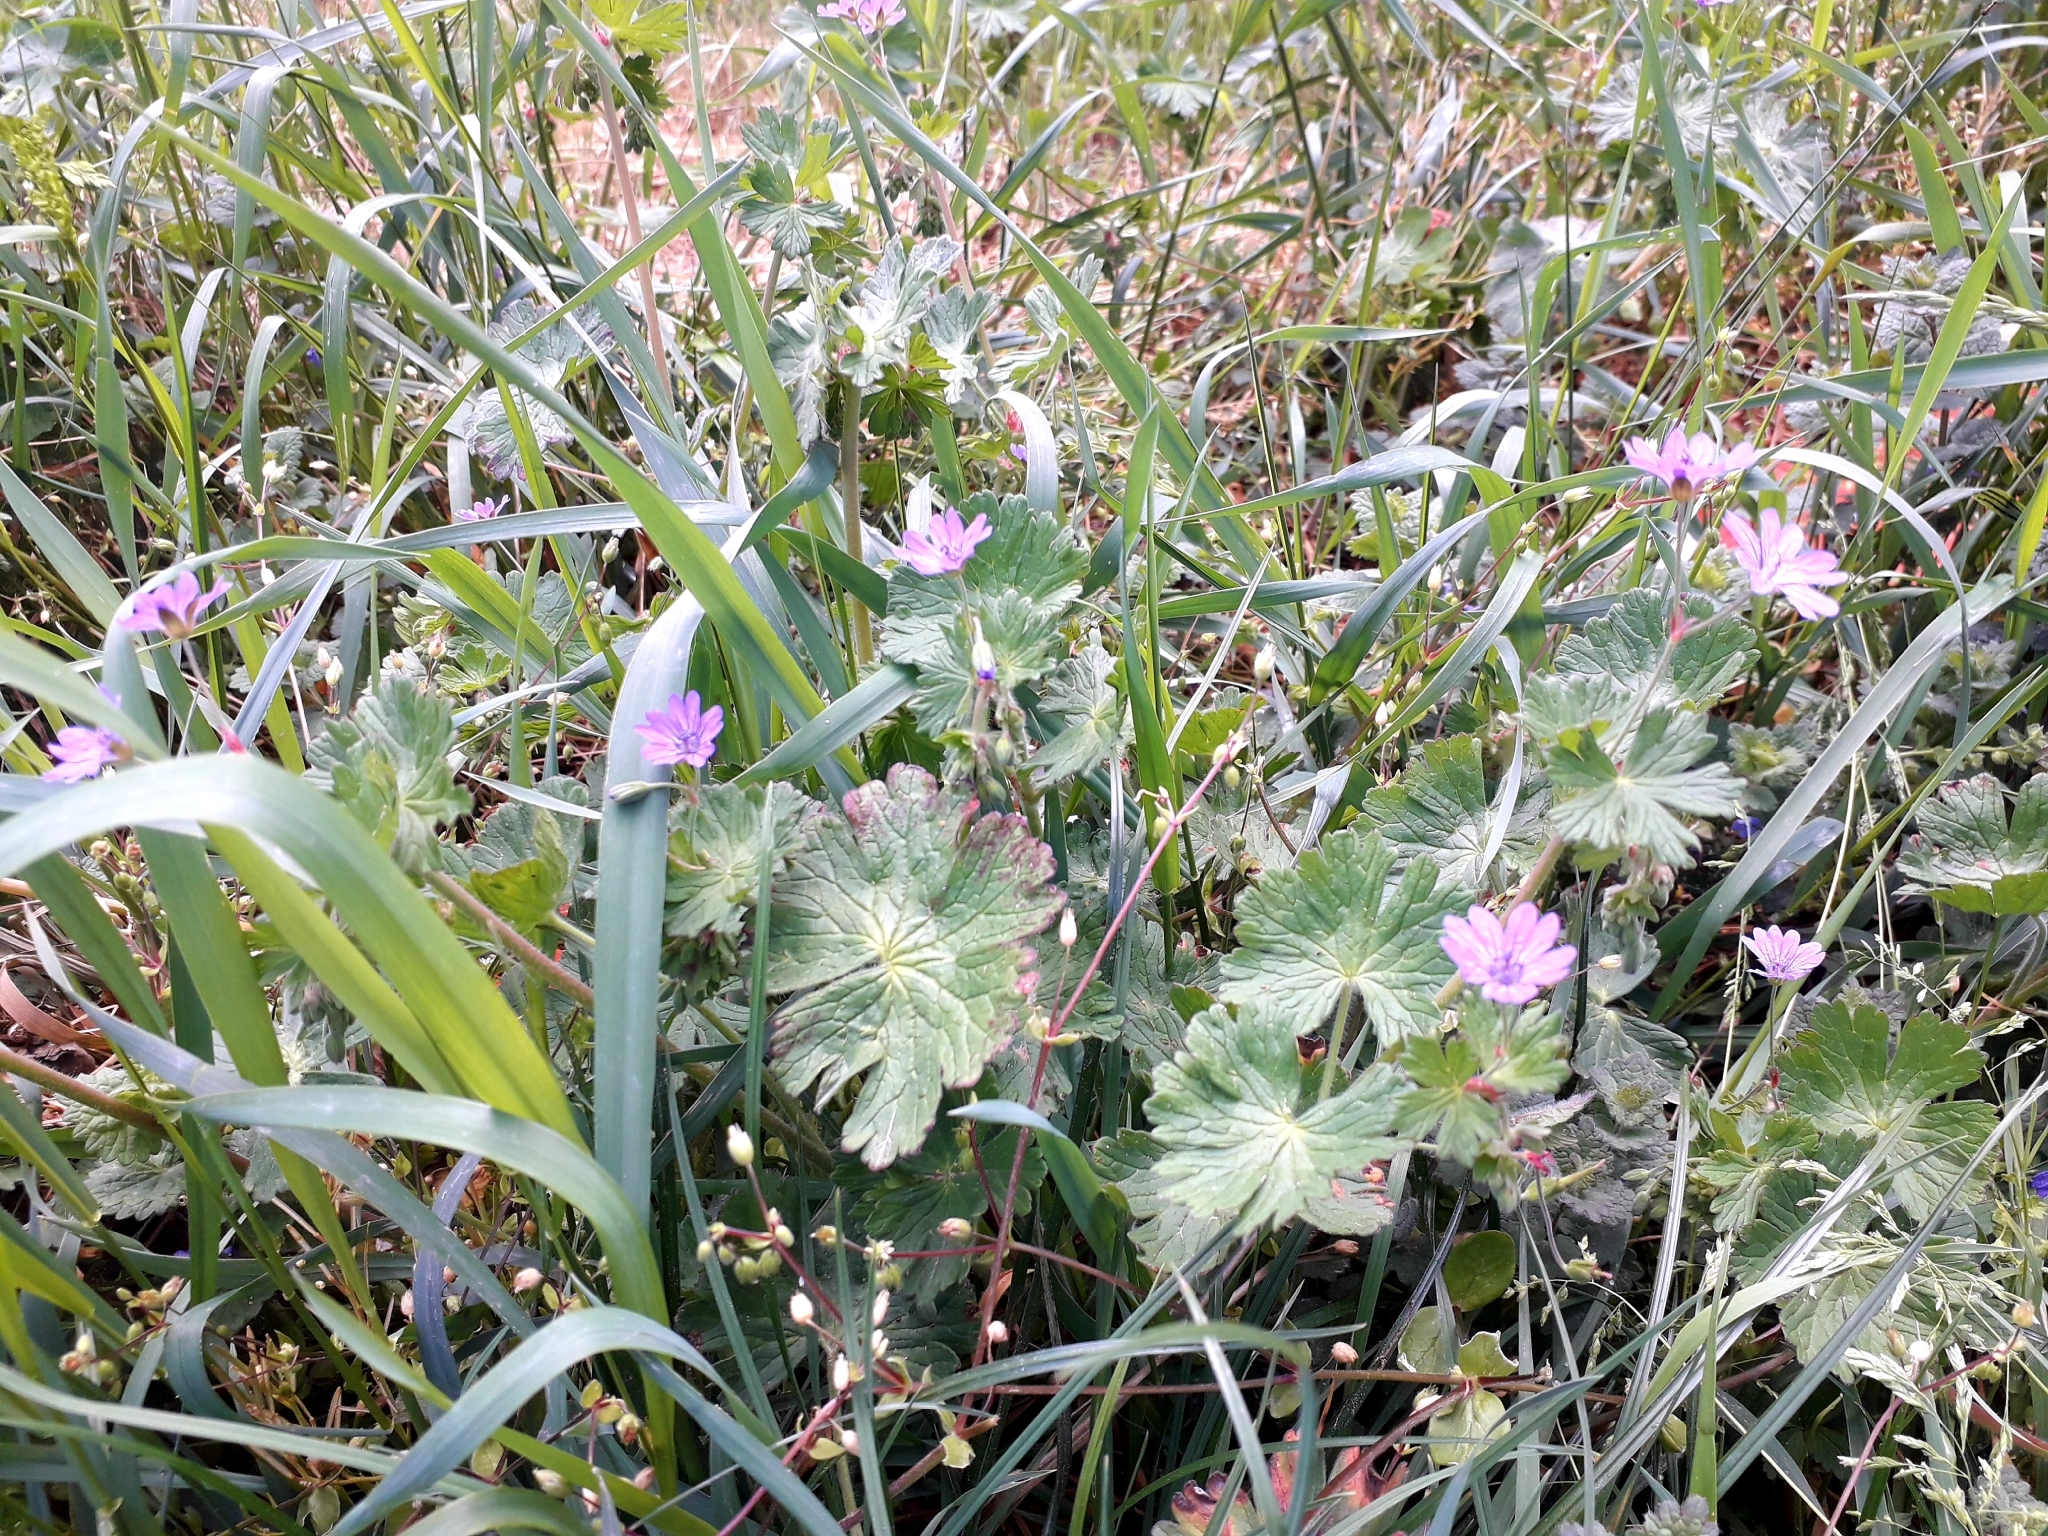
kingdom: Plantae
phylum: Tracheophyta
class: Magnoliopsida
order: Geraniales
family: Geraniaceae
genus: Geranium
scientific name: Geranium pyrenaicum
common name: Hedgerow crane's-bill
